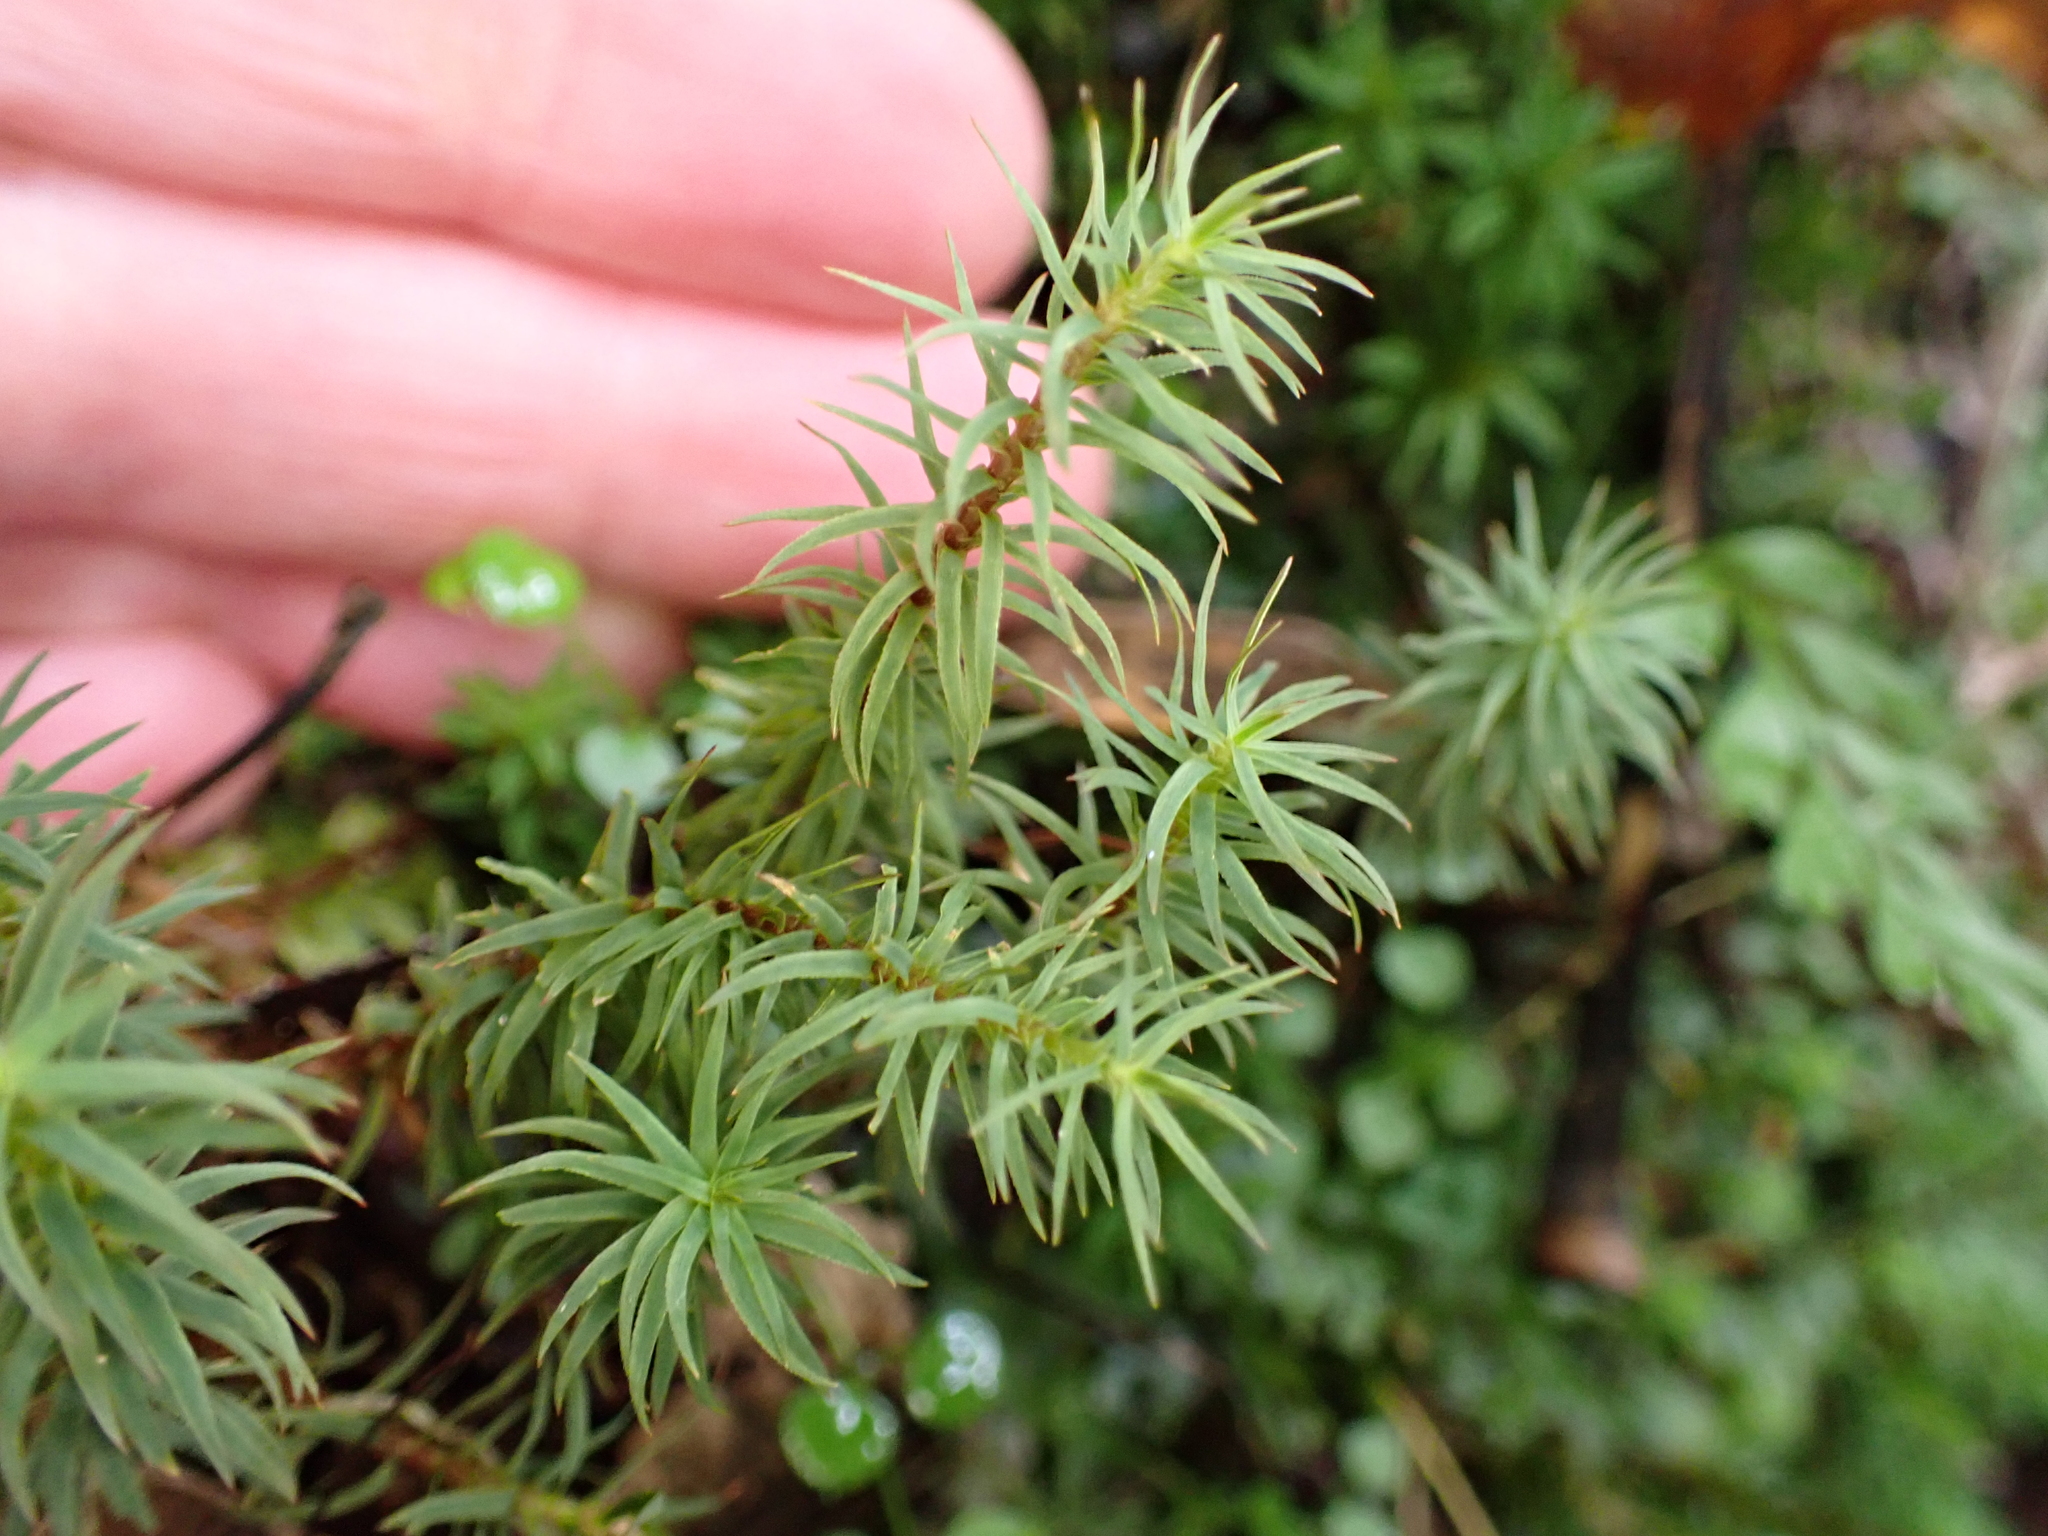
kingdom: Plantae
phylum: Bryophyta
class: Polytrichopsida
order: Polytrichales
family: Polytrichaceae
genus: Polytrichadelphus
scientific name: Polytrichadelphus magellanicus
